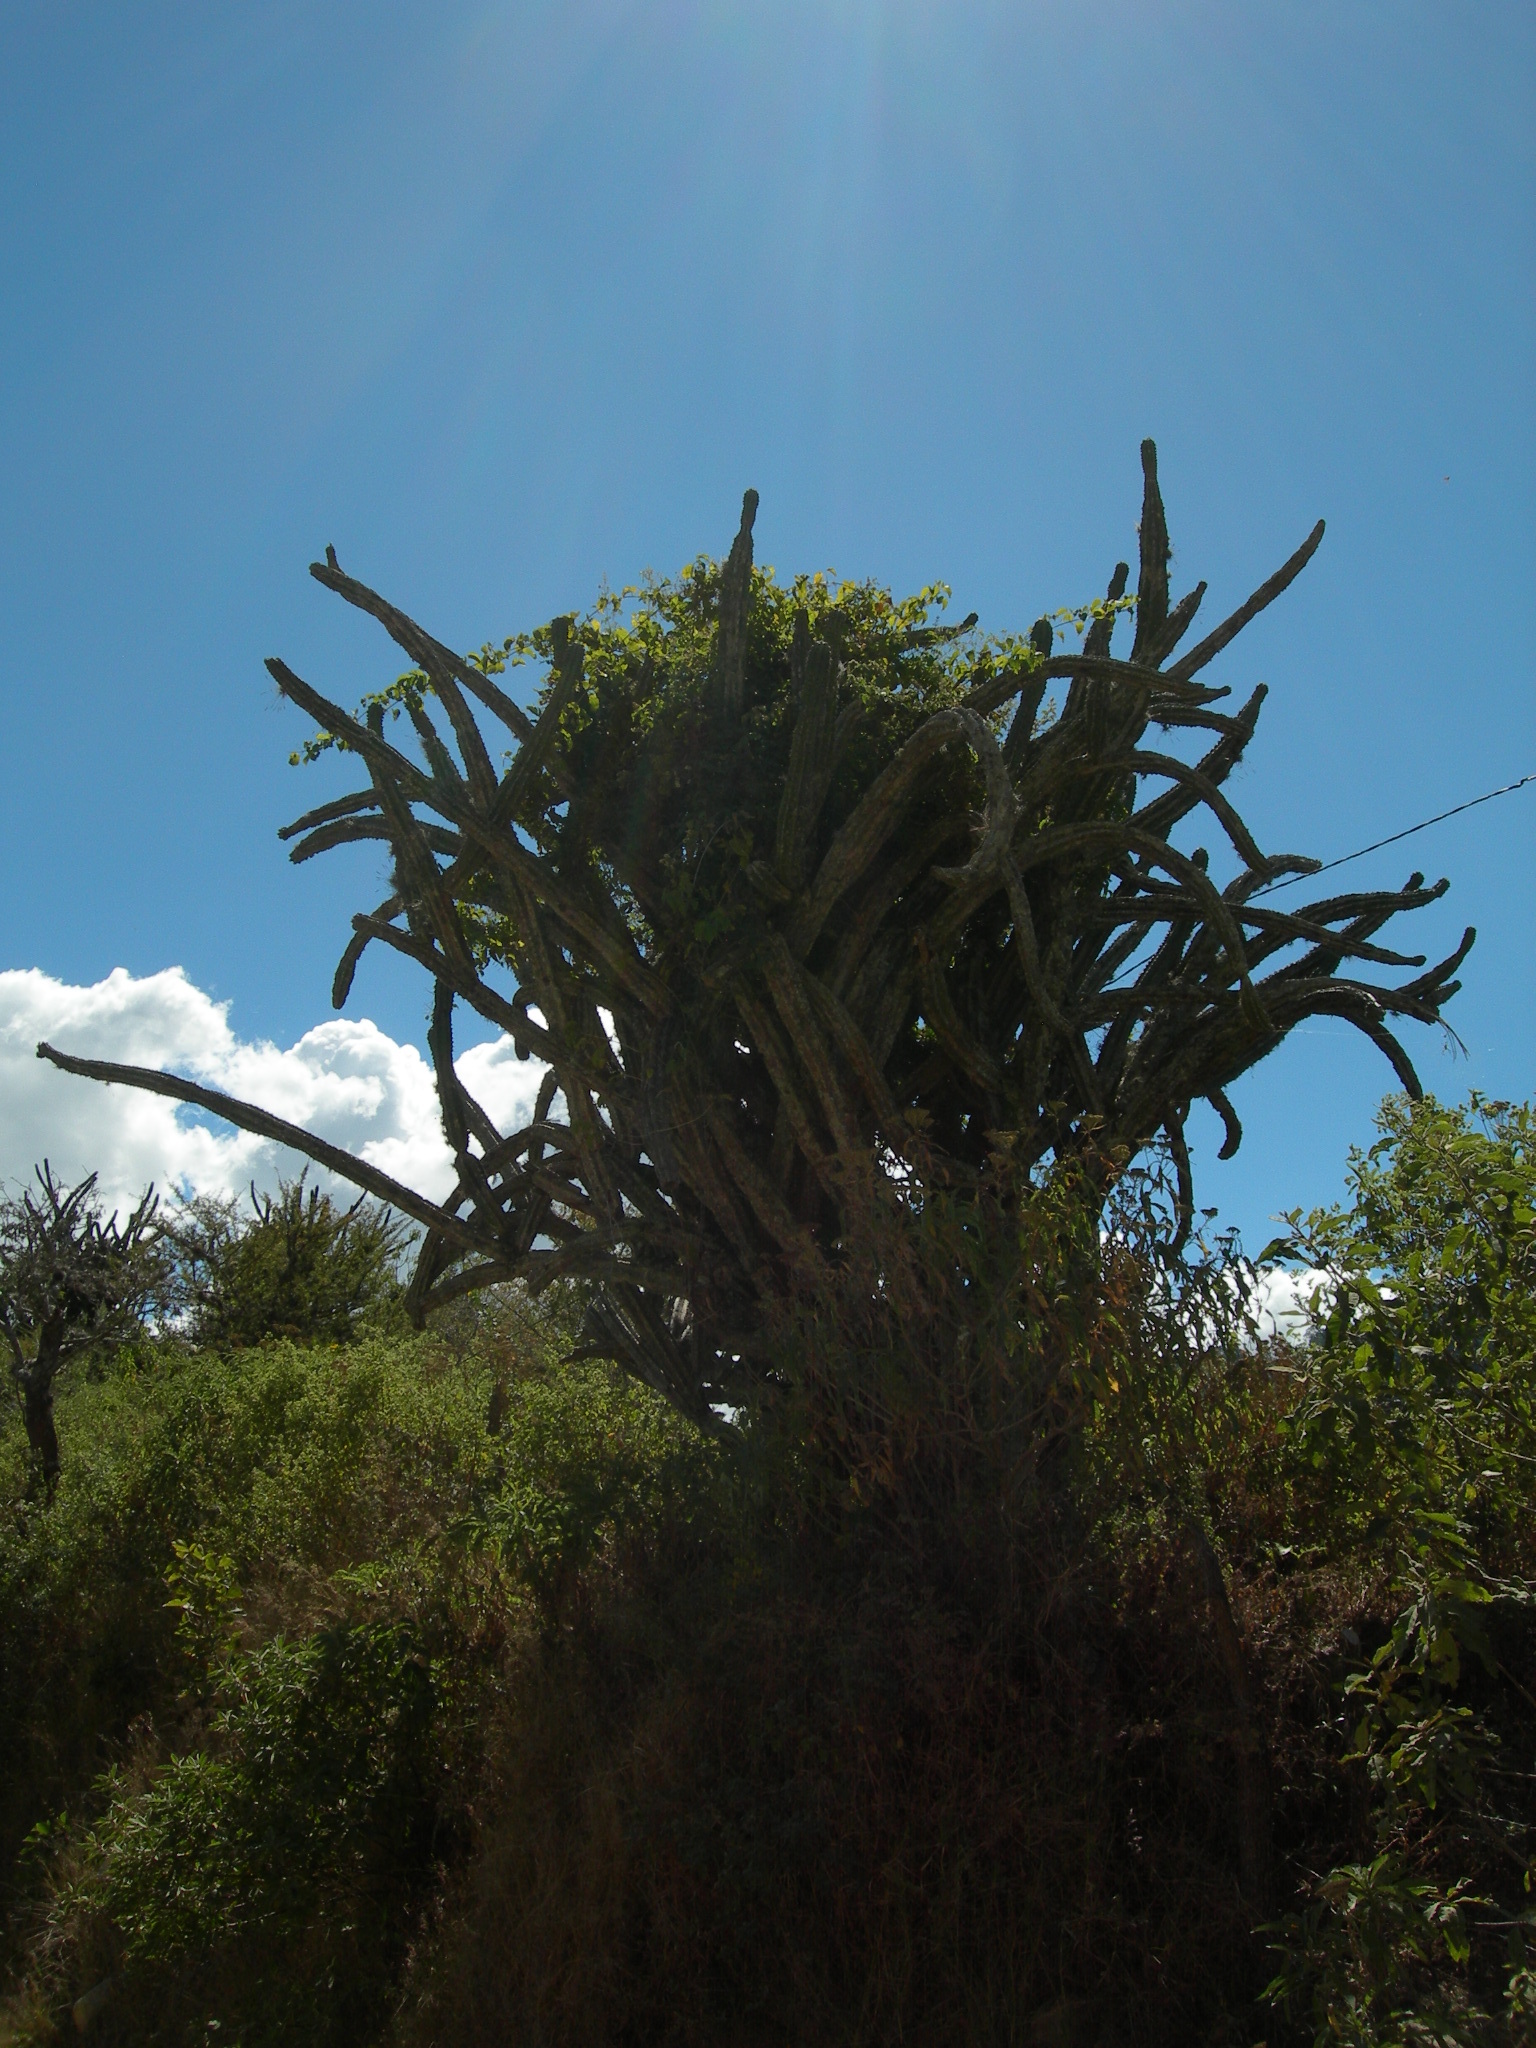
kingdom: Plantae
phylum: Tracheophyta
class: Magnoliopsida
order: Caryophyllales
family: Cactaceae
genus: Stenocereus
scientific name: Stenocereus pruinosus
